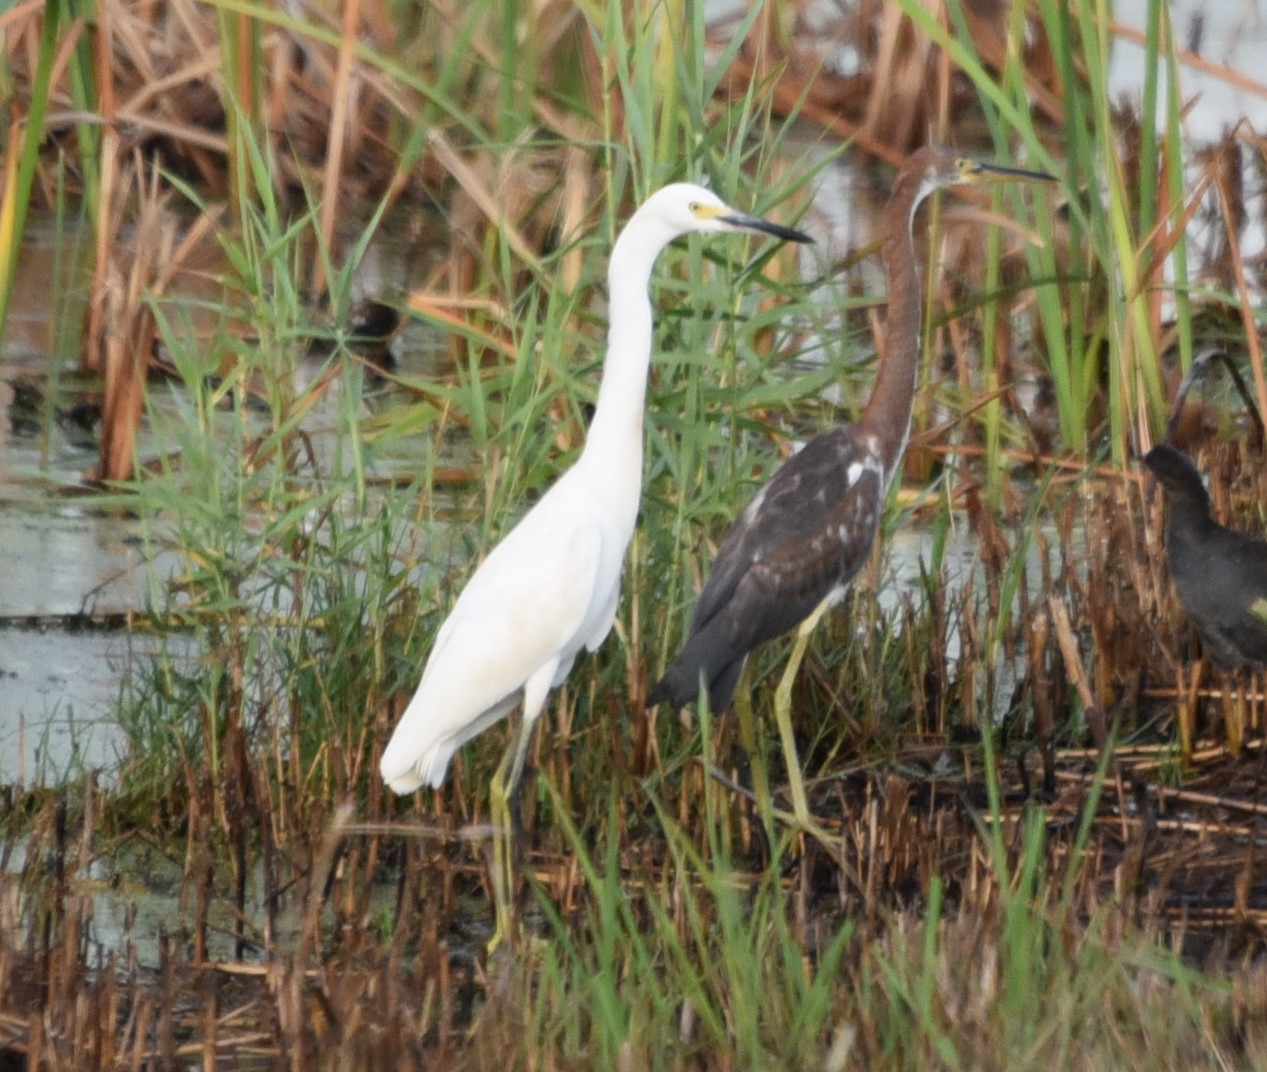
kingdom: Animalia
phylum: Chordata
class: Aves
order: Pelecaniformes
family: Ardeidae
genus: Egretta
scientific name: Egretta tricolor
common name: Tricolored heron
